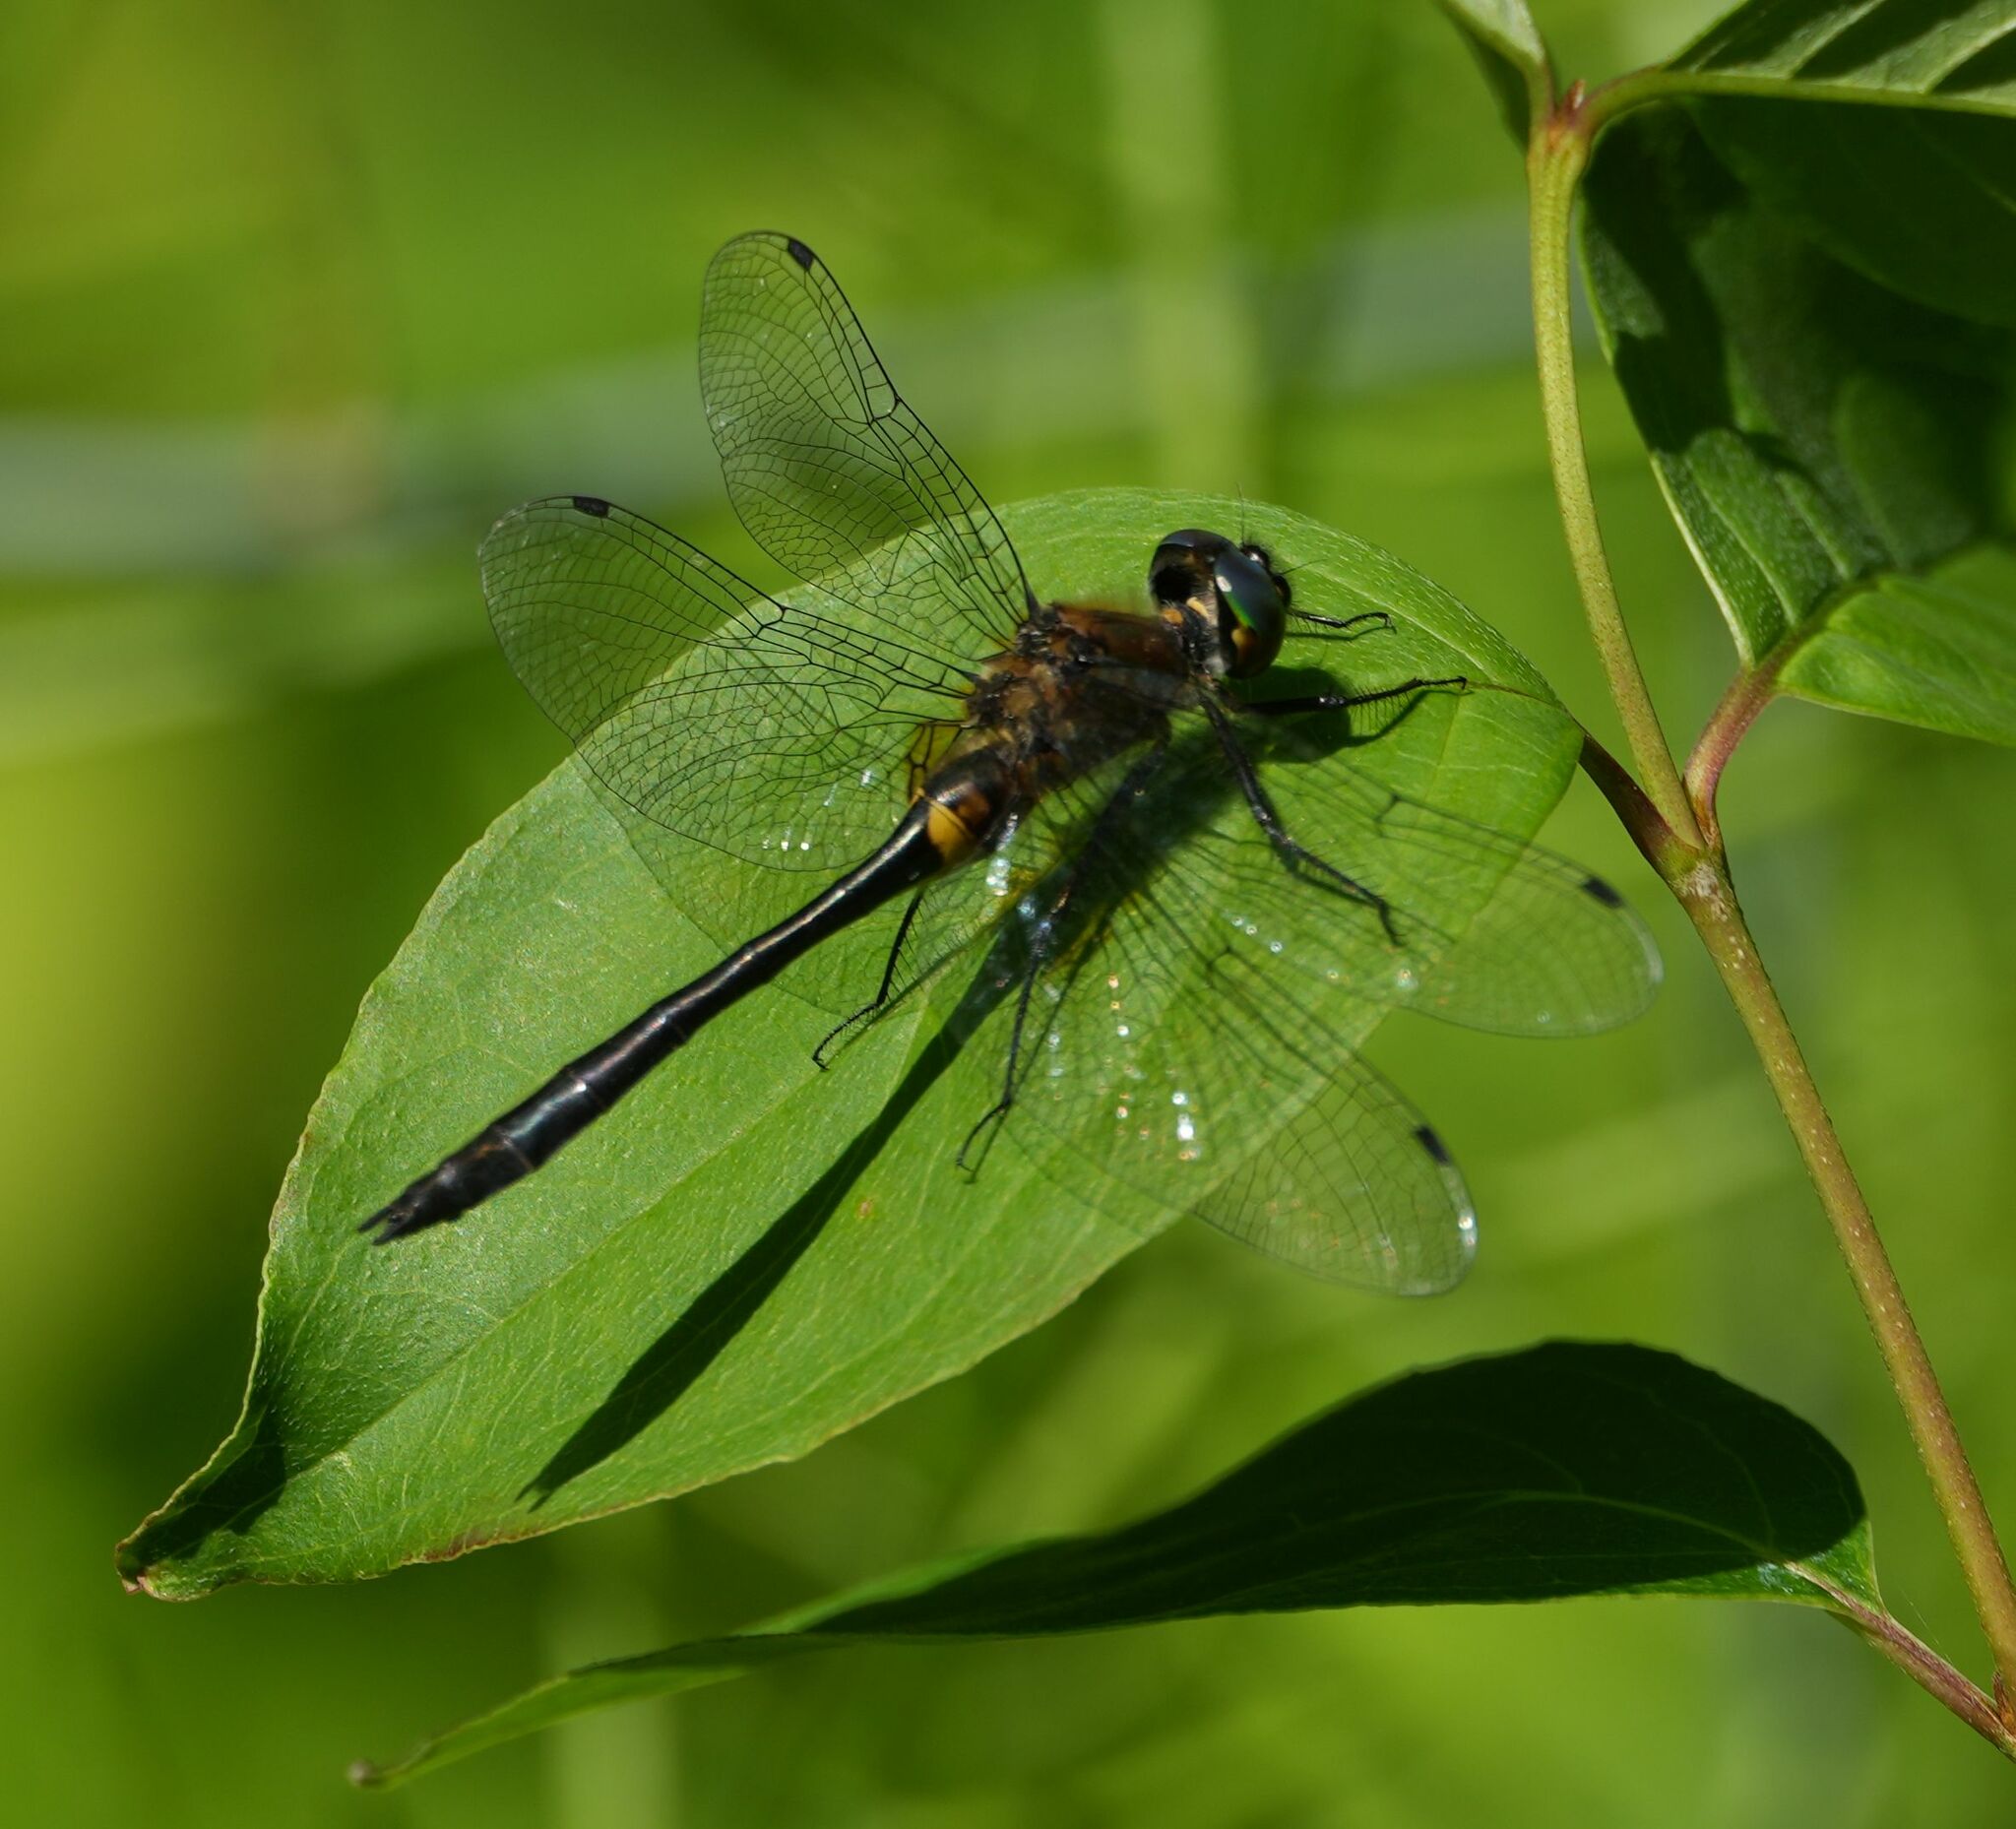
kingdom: Animalia
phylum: Arthropoda
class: Insecta
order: Odonata
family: Corduliidae
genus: Dorocordulia
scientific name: Dorocordulia libera
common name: Racket-tailed emerald
